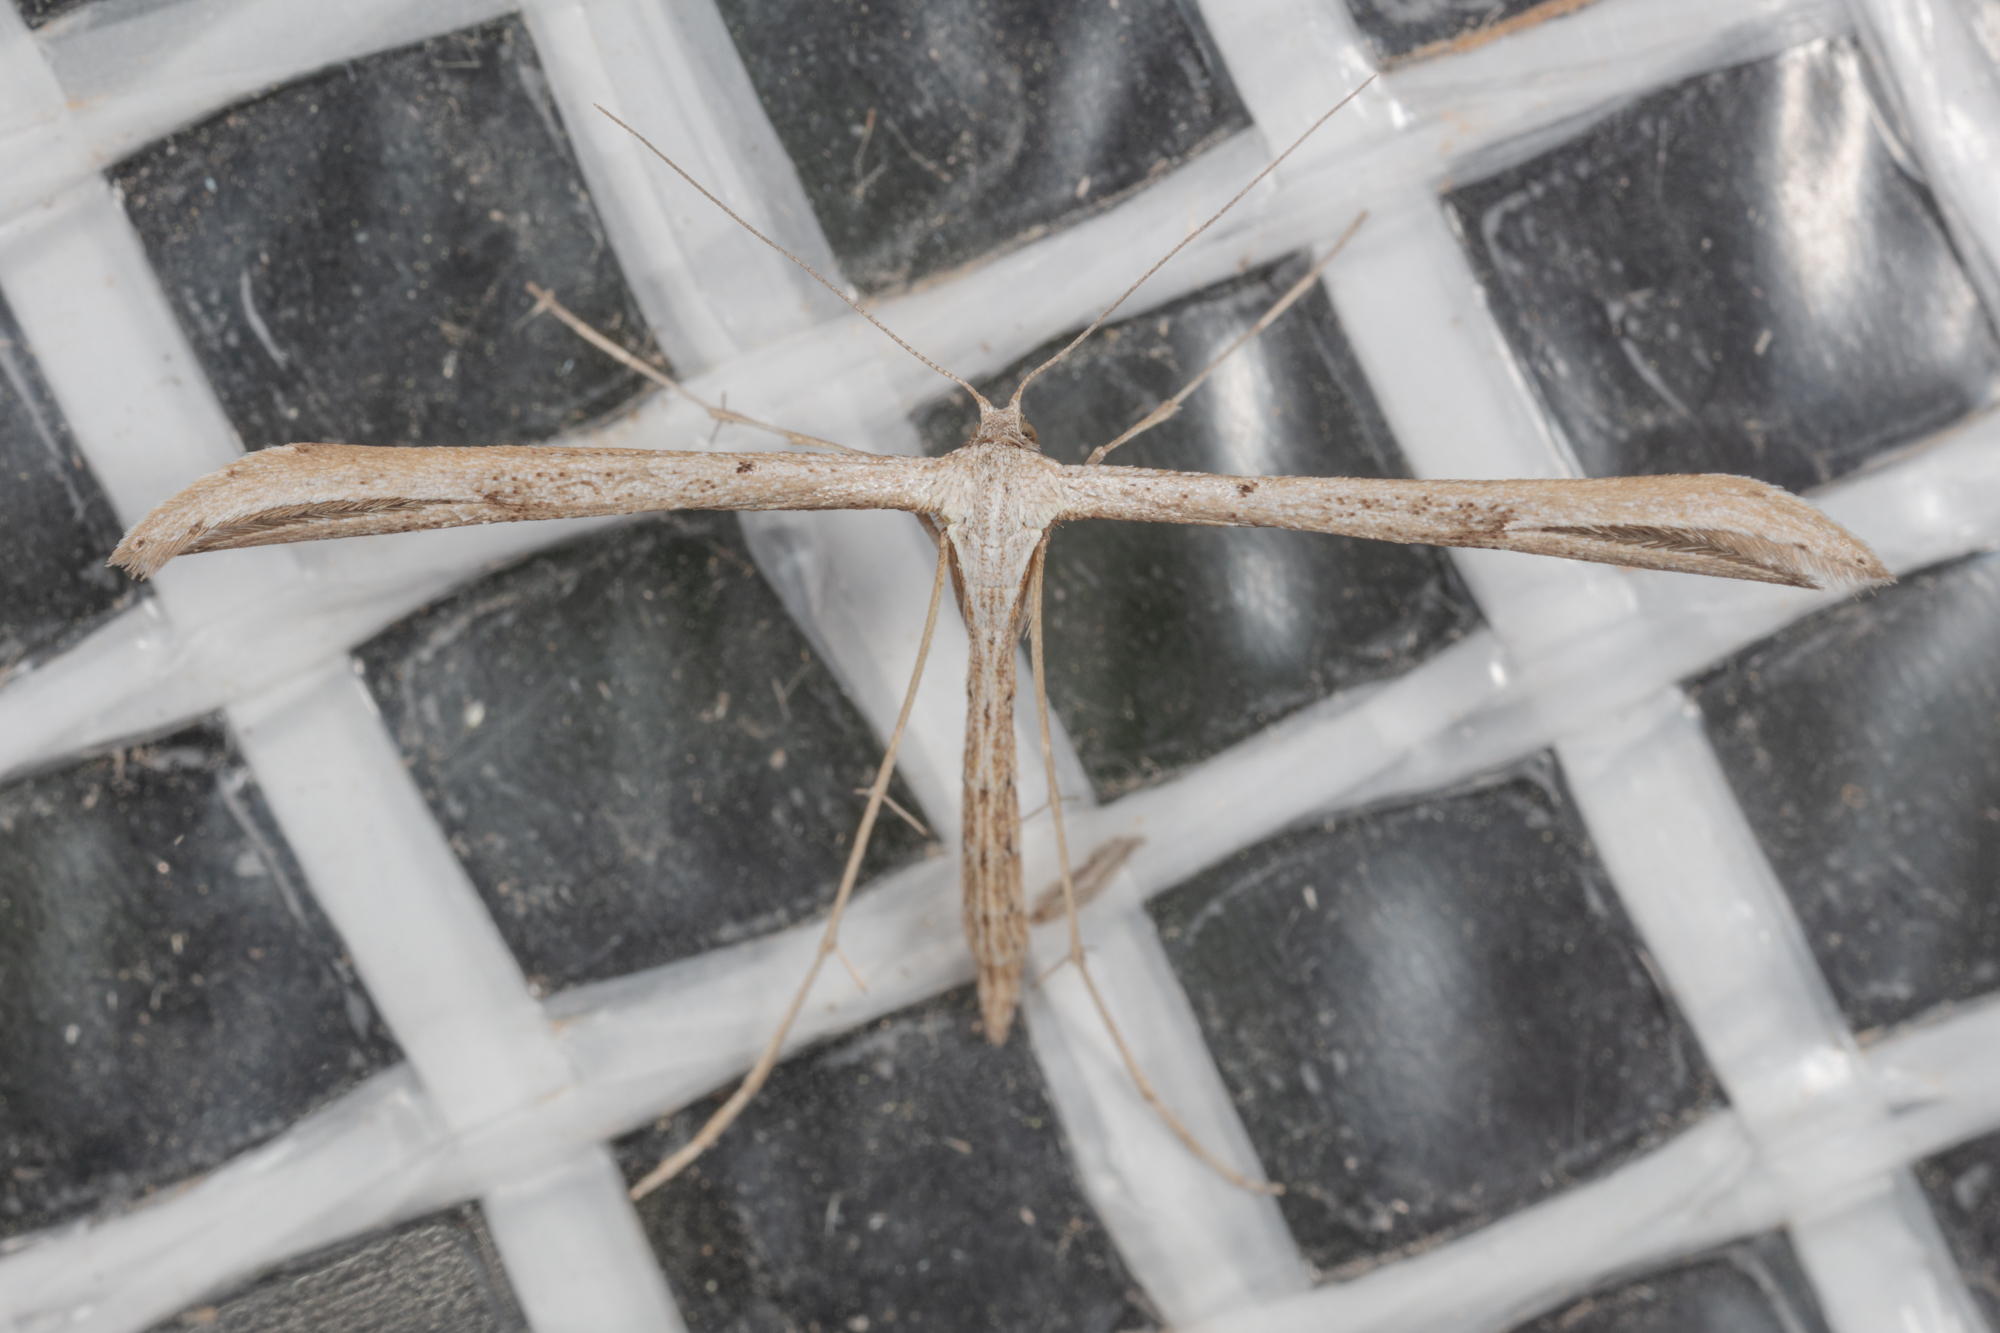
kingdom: Animalia
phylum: Arthropoda
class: Insecta
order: Lepidoptera
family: Pterophoridae
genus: Emmelina
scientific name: Emmelina monodactyla
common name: Common plume
